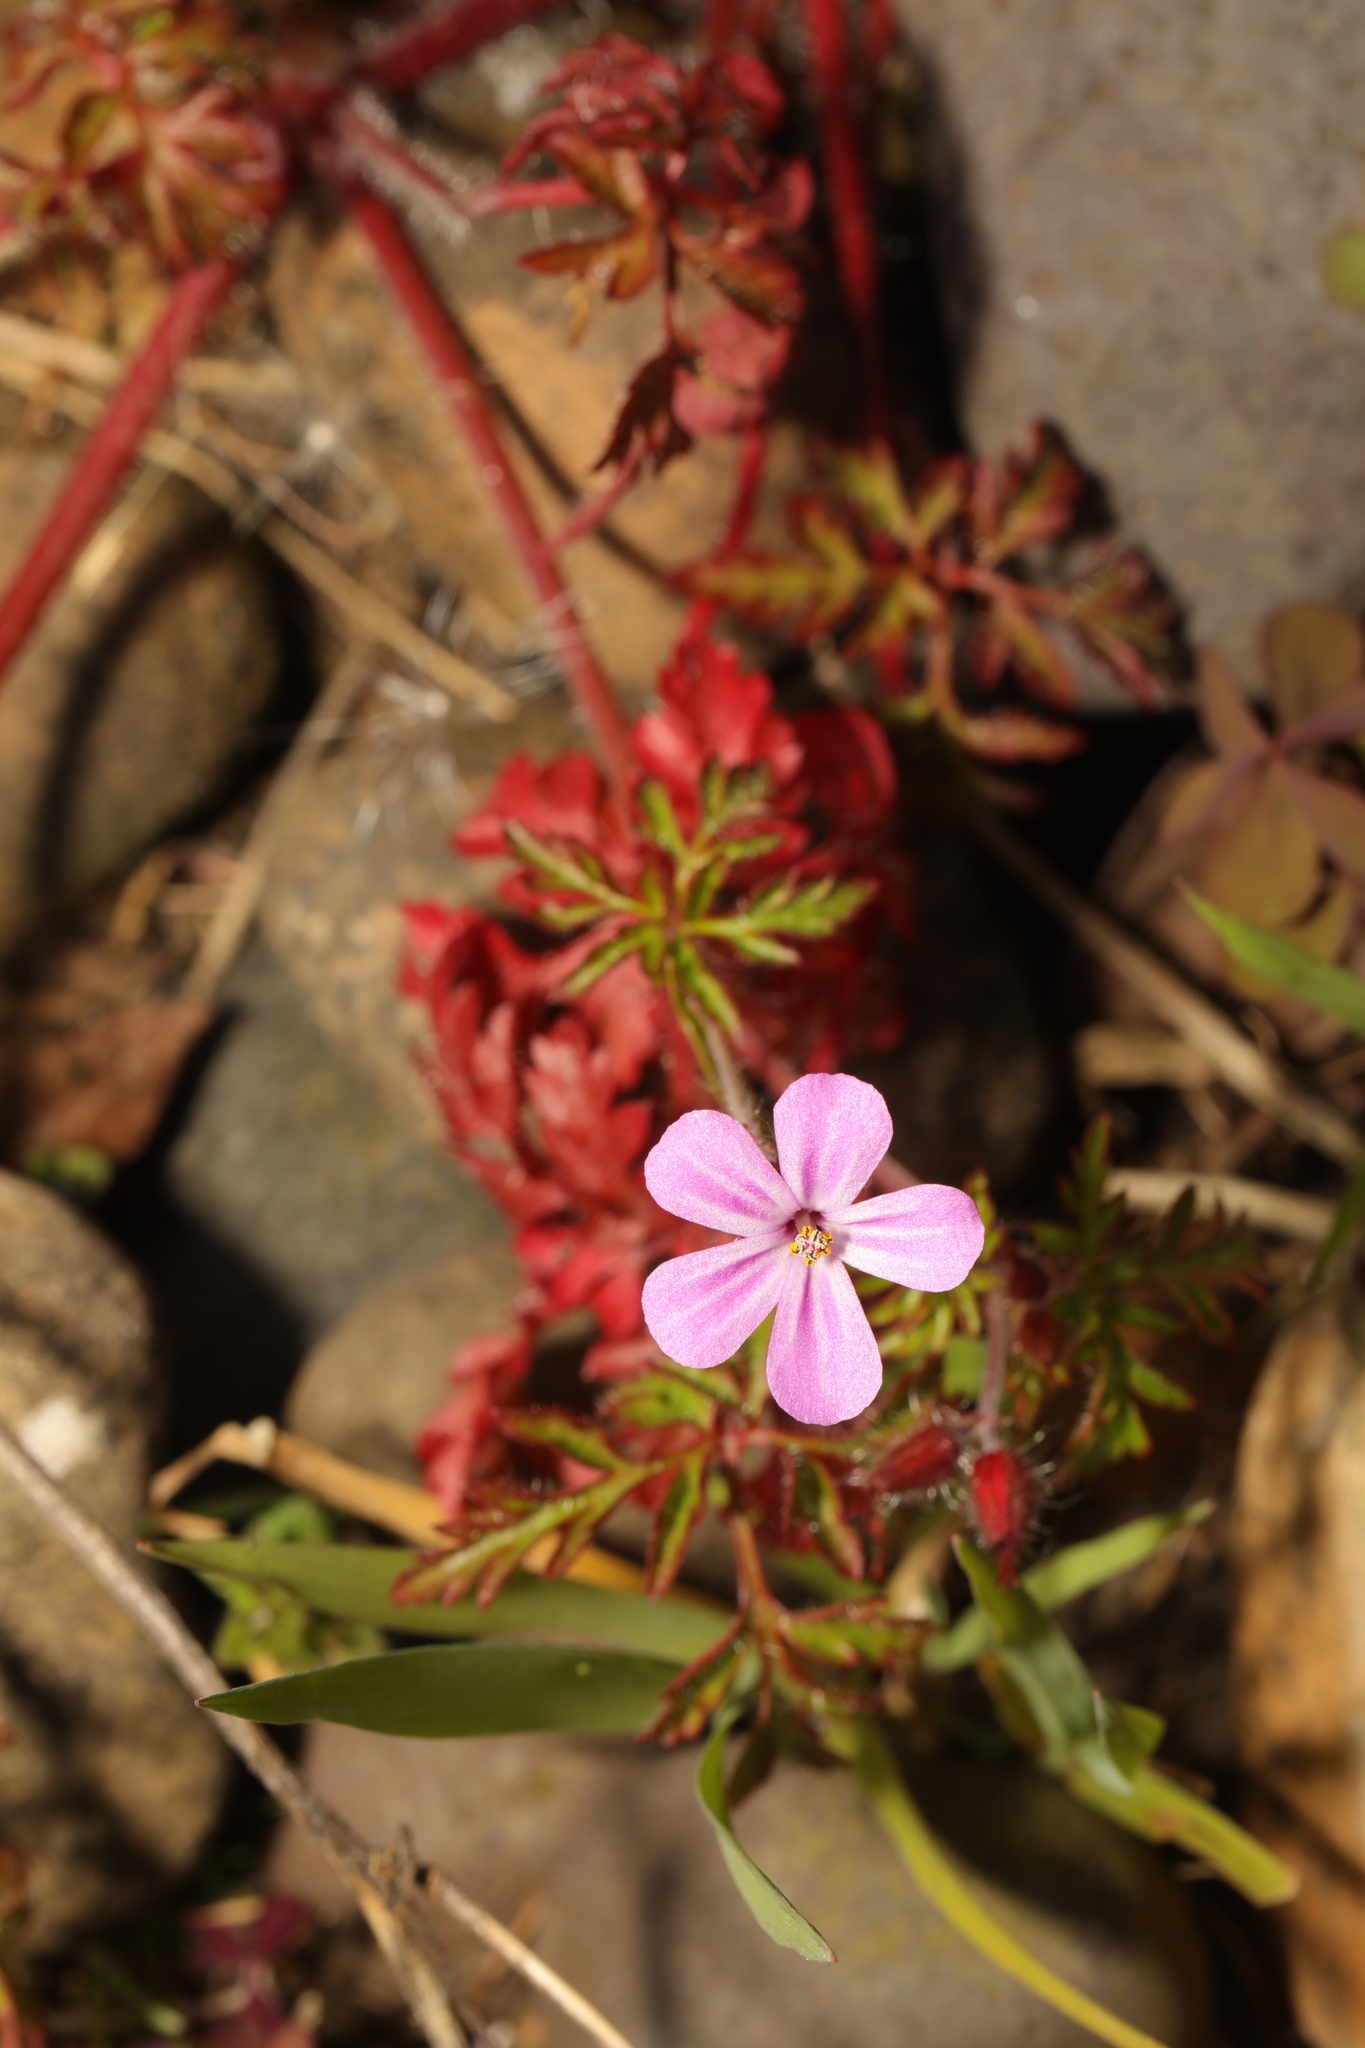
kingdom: Plantae
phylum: Tracheophyta
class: Magnoliopsida
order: Geraniales
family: Geraniaceae
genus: Geranium
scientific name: Geranium robertianum
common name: Herb-robert
